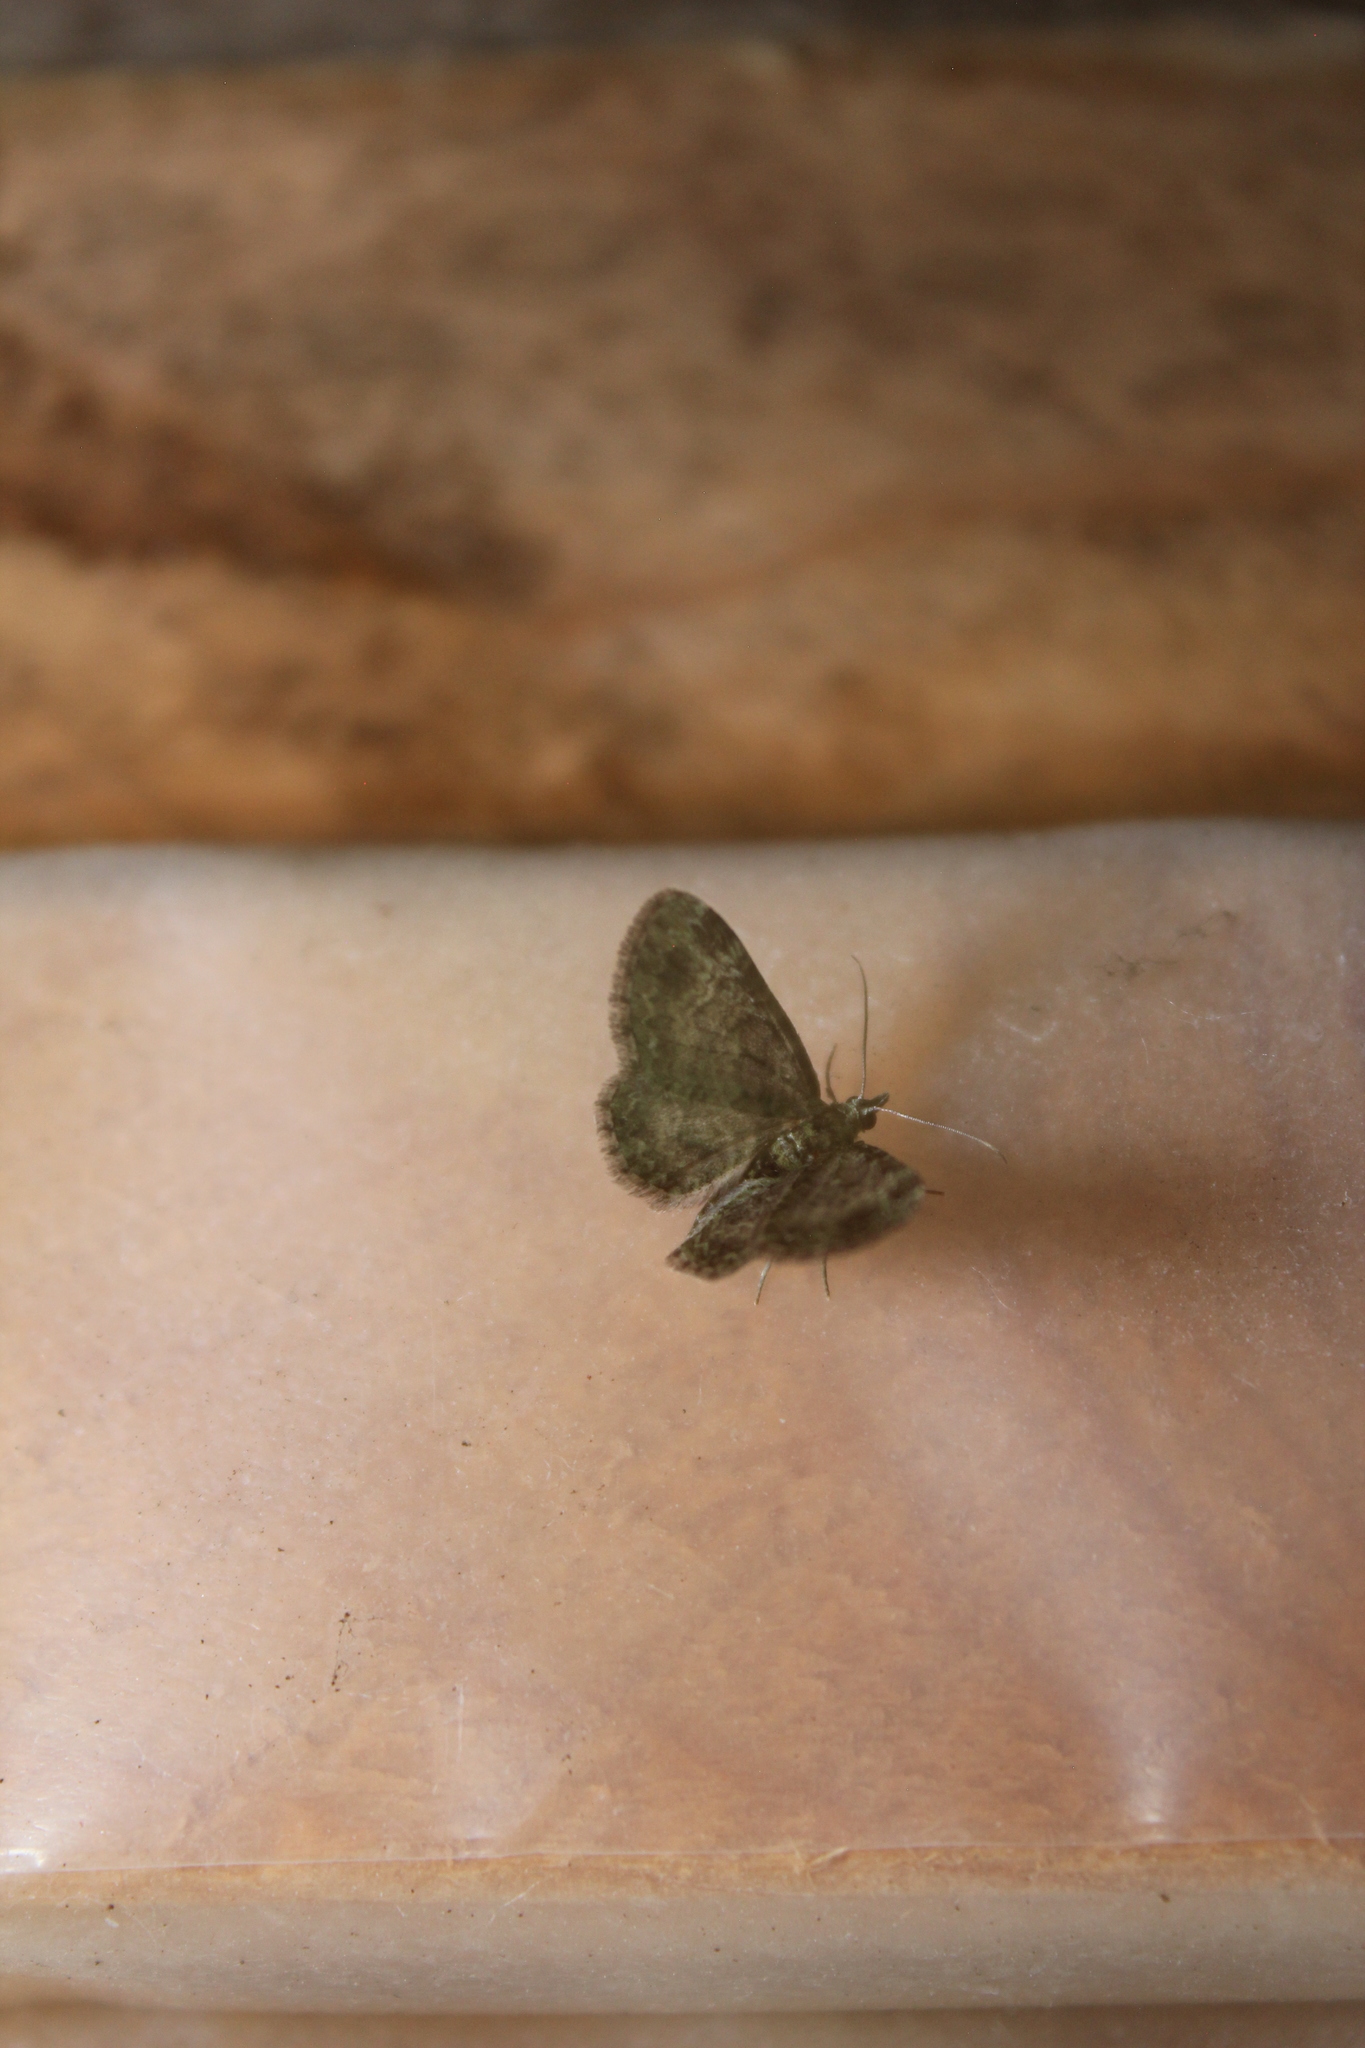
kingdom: Animalia
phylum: Arthropoda
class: Insecta
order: Lepidoptera
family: Geometridae
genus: Pasiphila
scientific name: Pasiphila rectangulata
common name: Green pug
